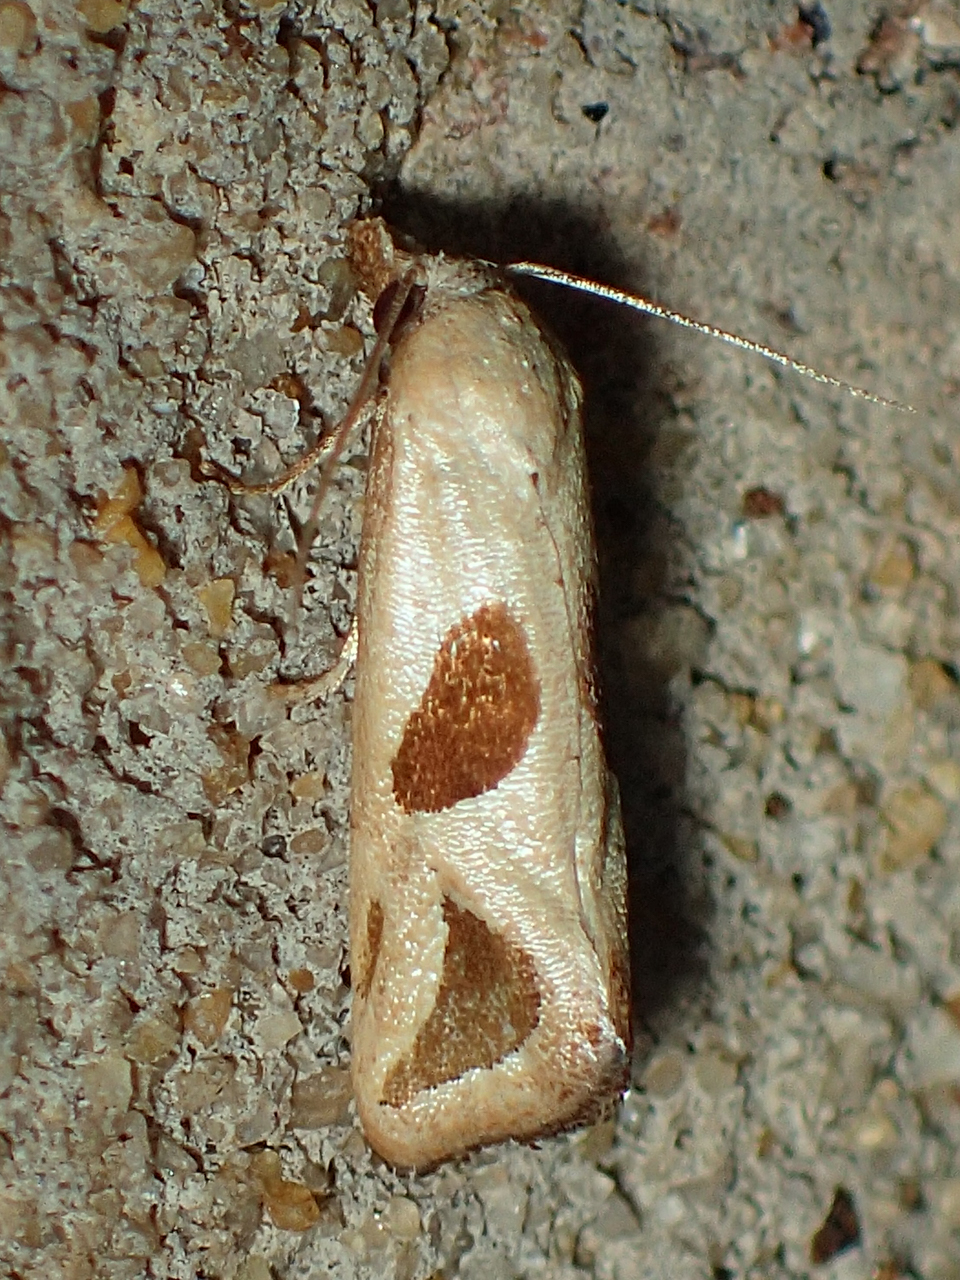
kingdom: Animalia
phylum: Arthropoda
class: Insecta
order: Lepidoptera
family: Tortricidae
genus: Eugnosta
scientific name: Eugnosta sartana
